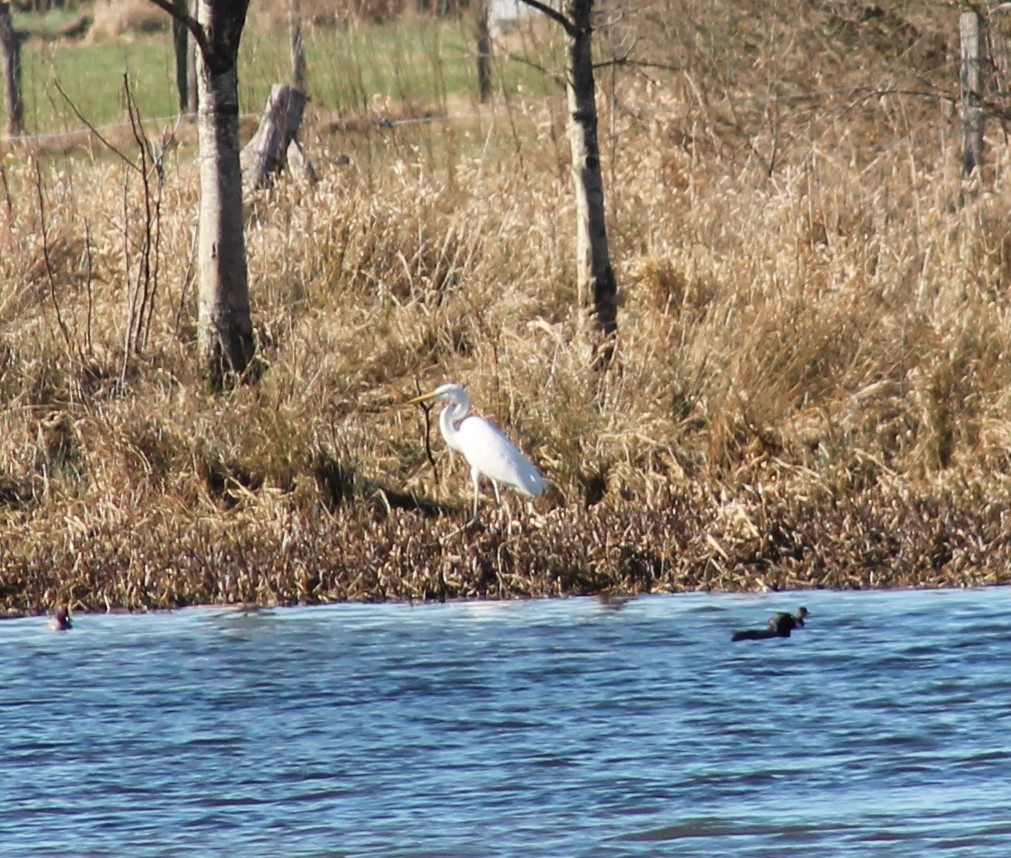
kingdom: Animalia
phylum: Chordata
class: Aves
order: Pelecaniformes
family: Ardeidae
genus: Ardea
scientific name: Ardea alba
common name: Great egret
